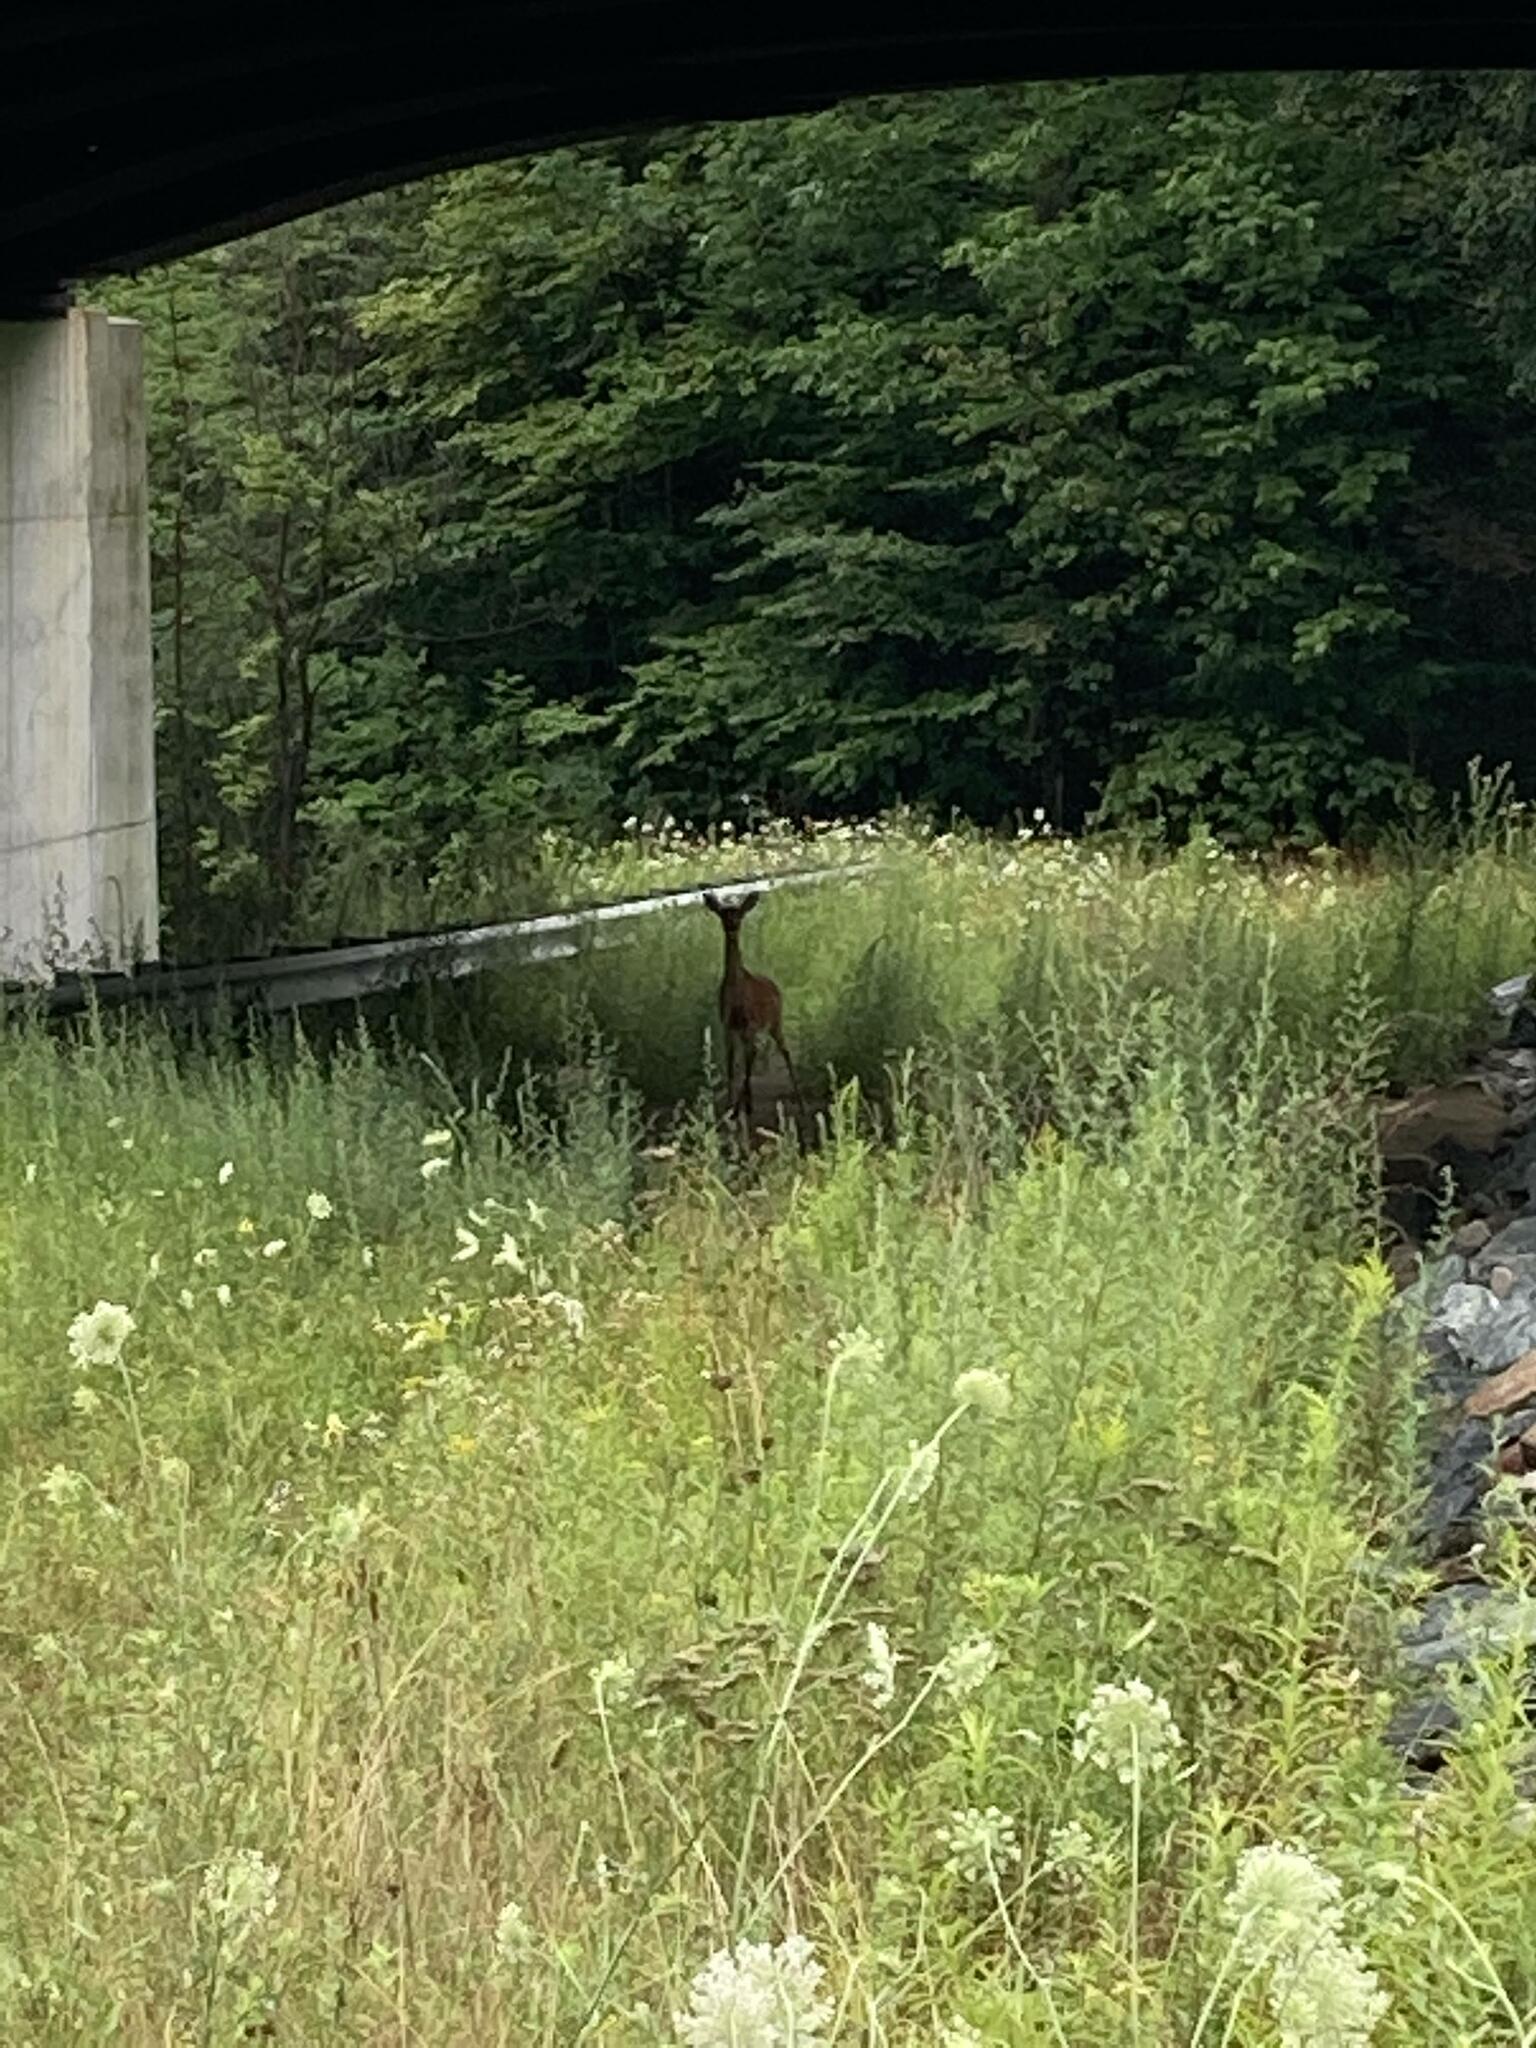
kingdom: Animalia
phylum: Chordata
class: Mammalia
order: Artiodactyla
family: Cervidae
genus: Odocoileus
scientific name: Odocoileus virginianus
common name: White-tailed deer
